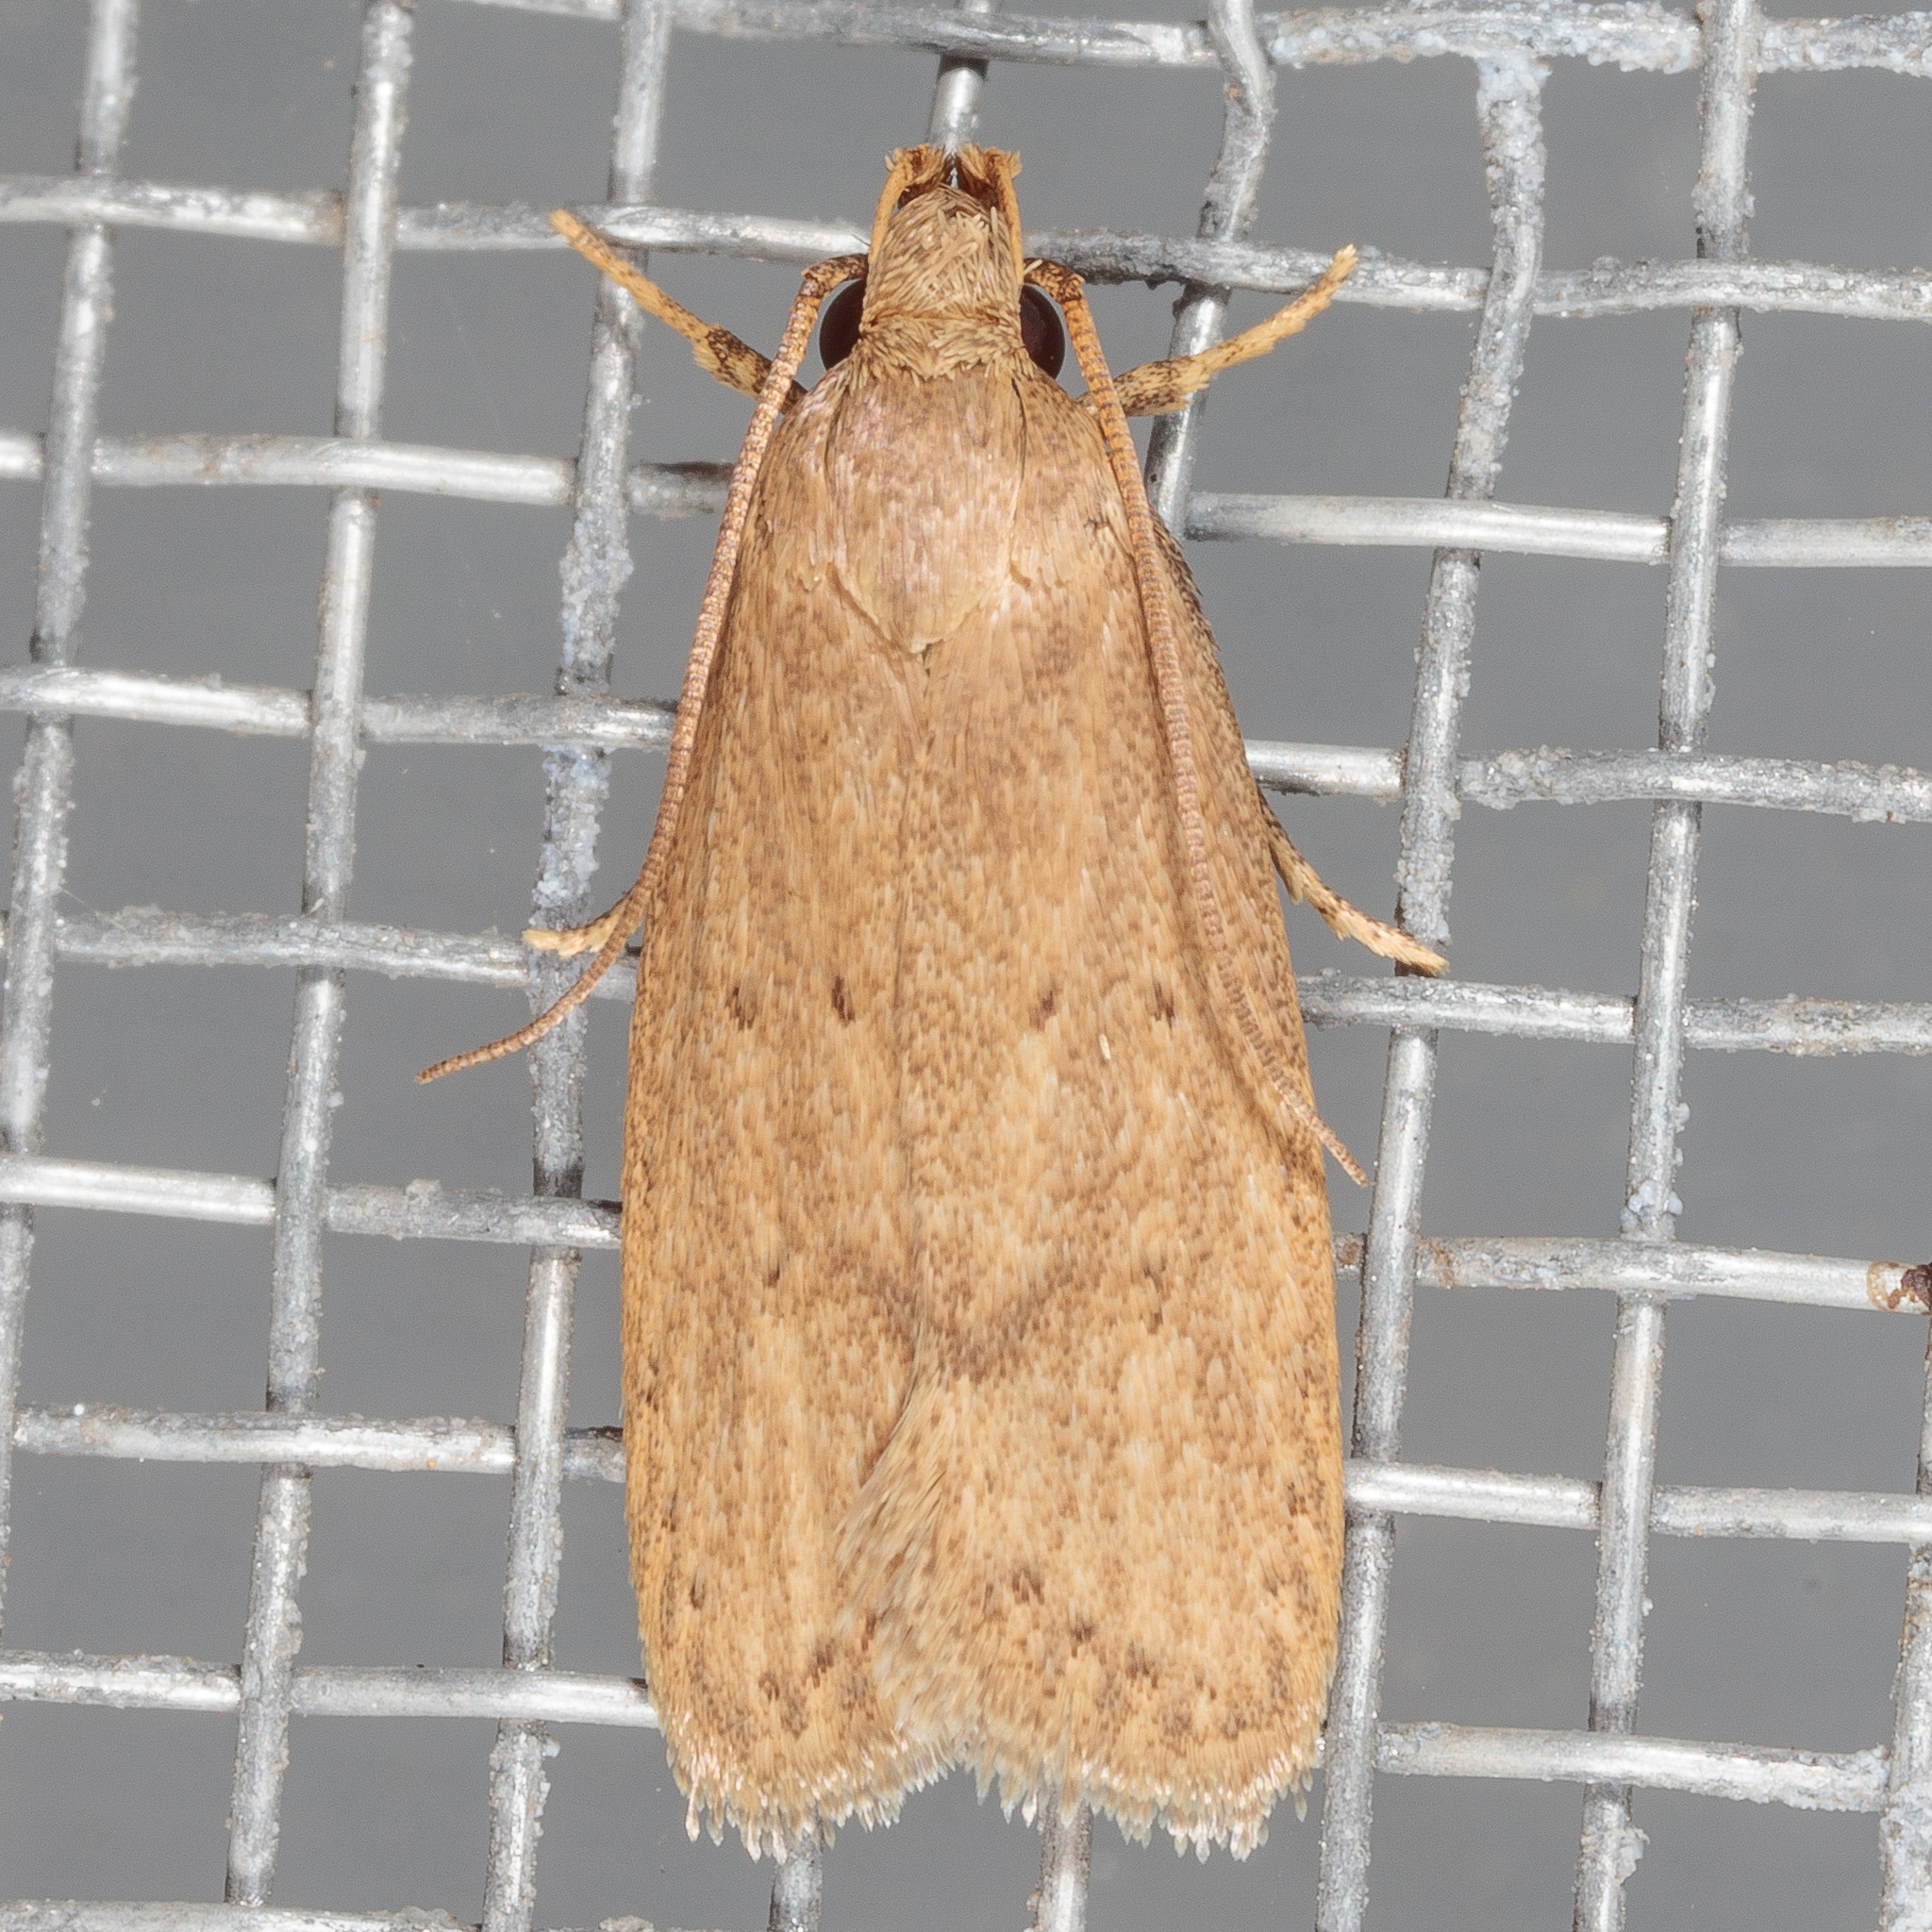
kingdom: Animalia
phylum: Arthropoda
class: Insecta
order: Lepidoptera
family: Autostichidae
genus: Autosticha
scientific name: Autosticha kyotensis
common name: Kyoto moth
